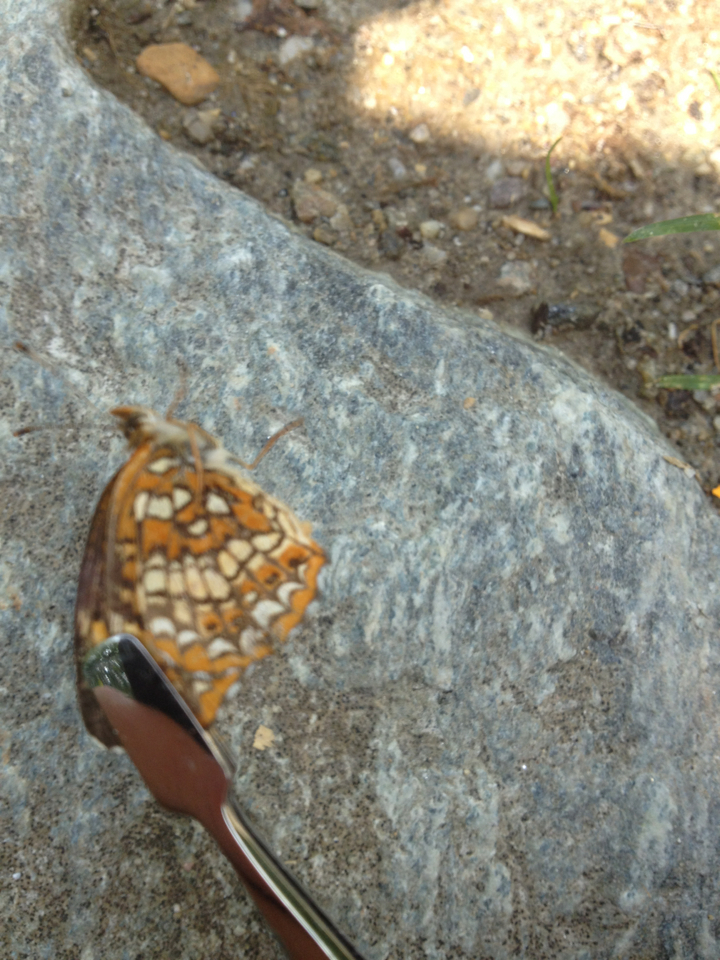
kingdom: Animalia
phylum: Arthropoda
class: Insecta
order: Lepidoptera
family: Nymphalidae
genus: Chlosyne
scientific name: Chlosyne harrisii
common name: Harris's checkerspot
